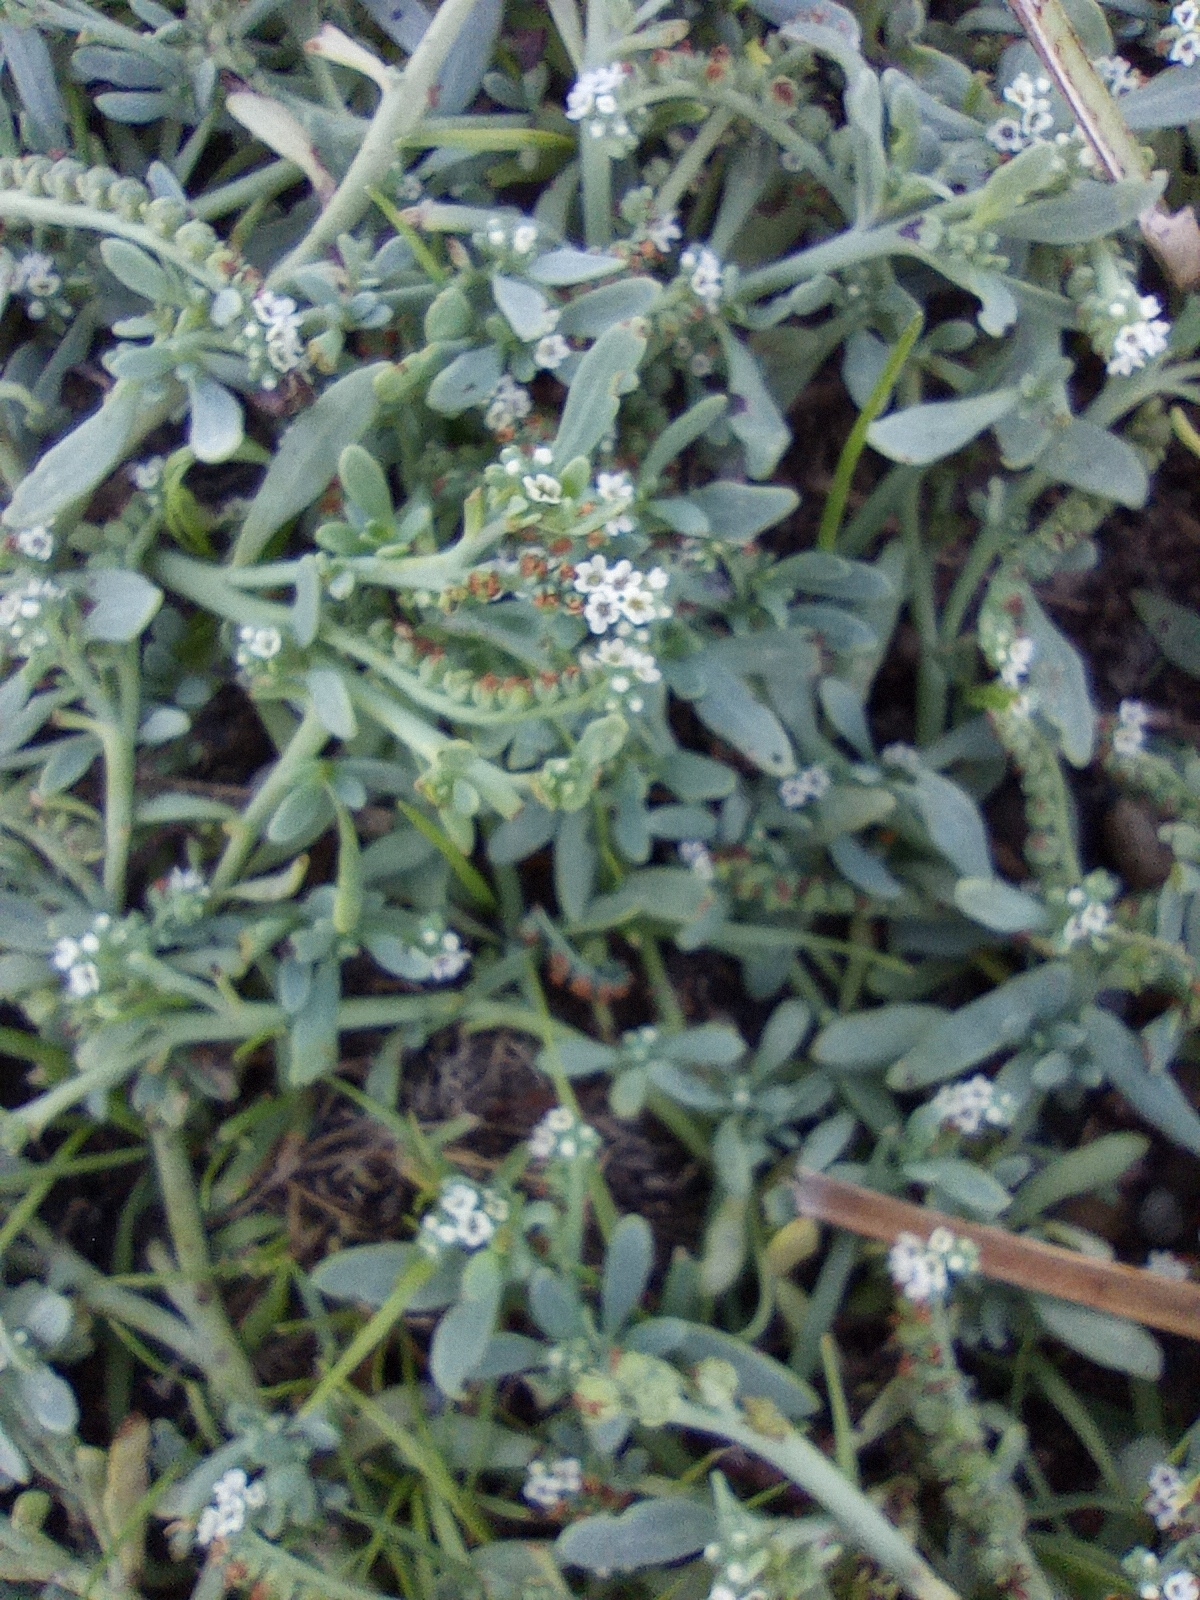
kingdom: Plantae
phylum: Tracheophyta
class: Magnoliopsida
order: Boraginales
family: Heliotropiaceae
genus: Heliotropium
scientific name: Heliotropium curassavicum
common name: Seaside heliotrope
